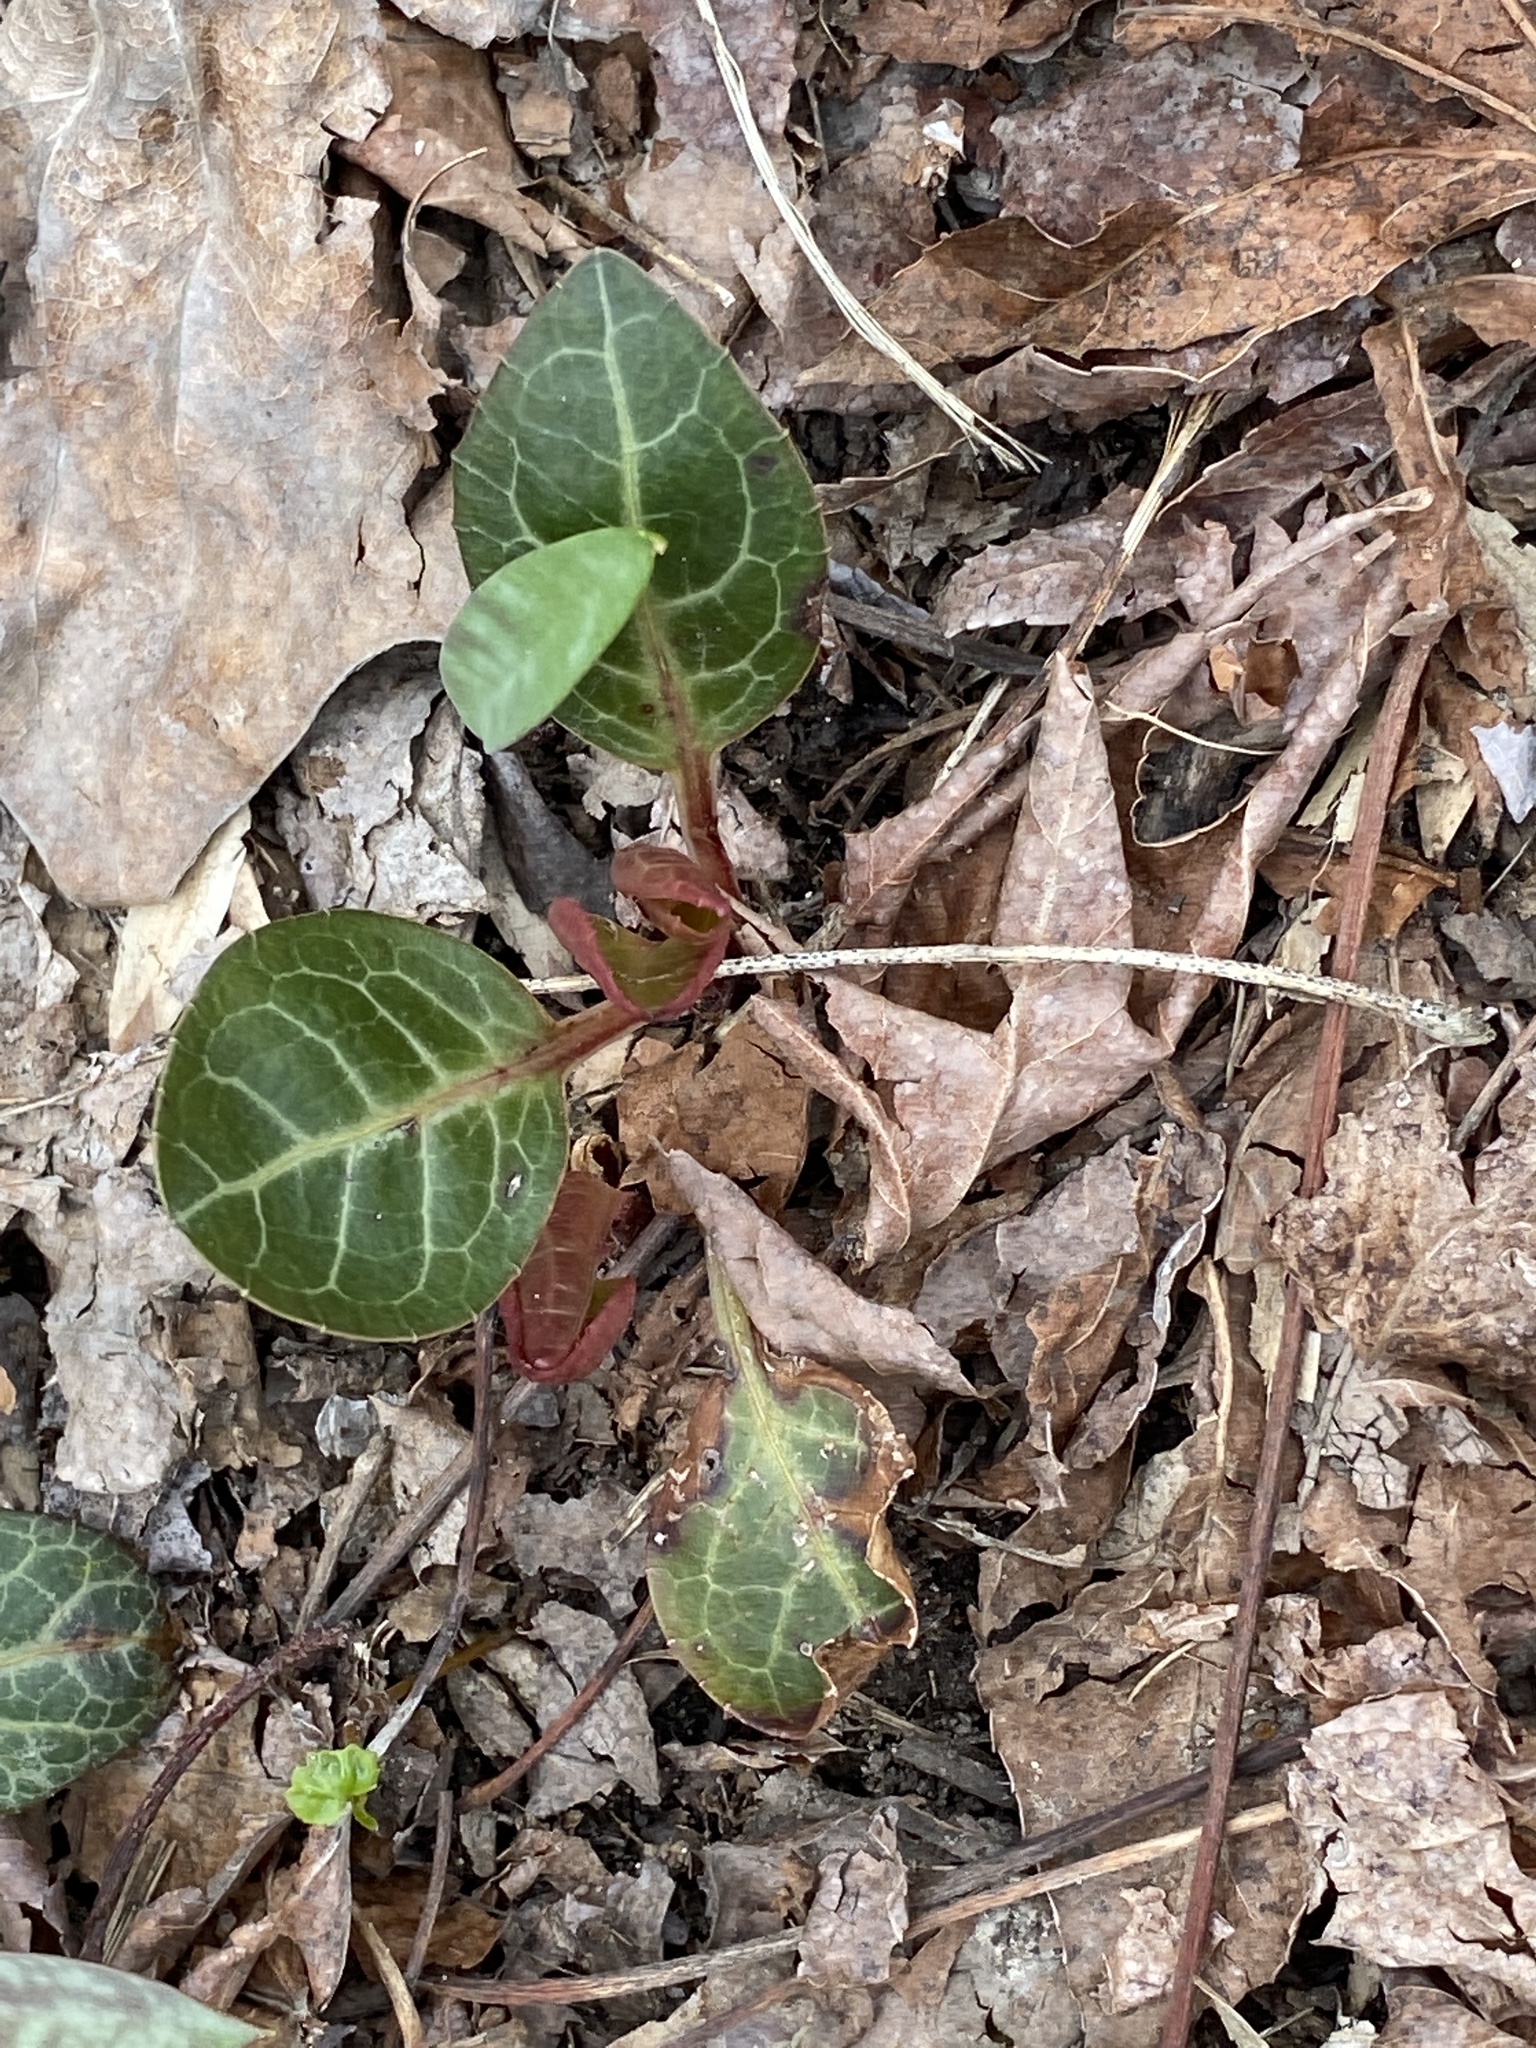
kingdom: Plantae
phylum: Tracheophyta
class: Magnoliopsida
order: Ericales
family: Ericaceae
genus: Pyrola
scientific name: Pyrola americana
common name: American wintergreen
